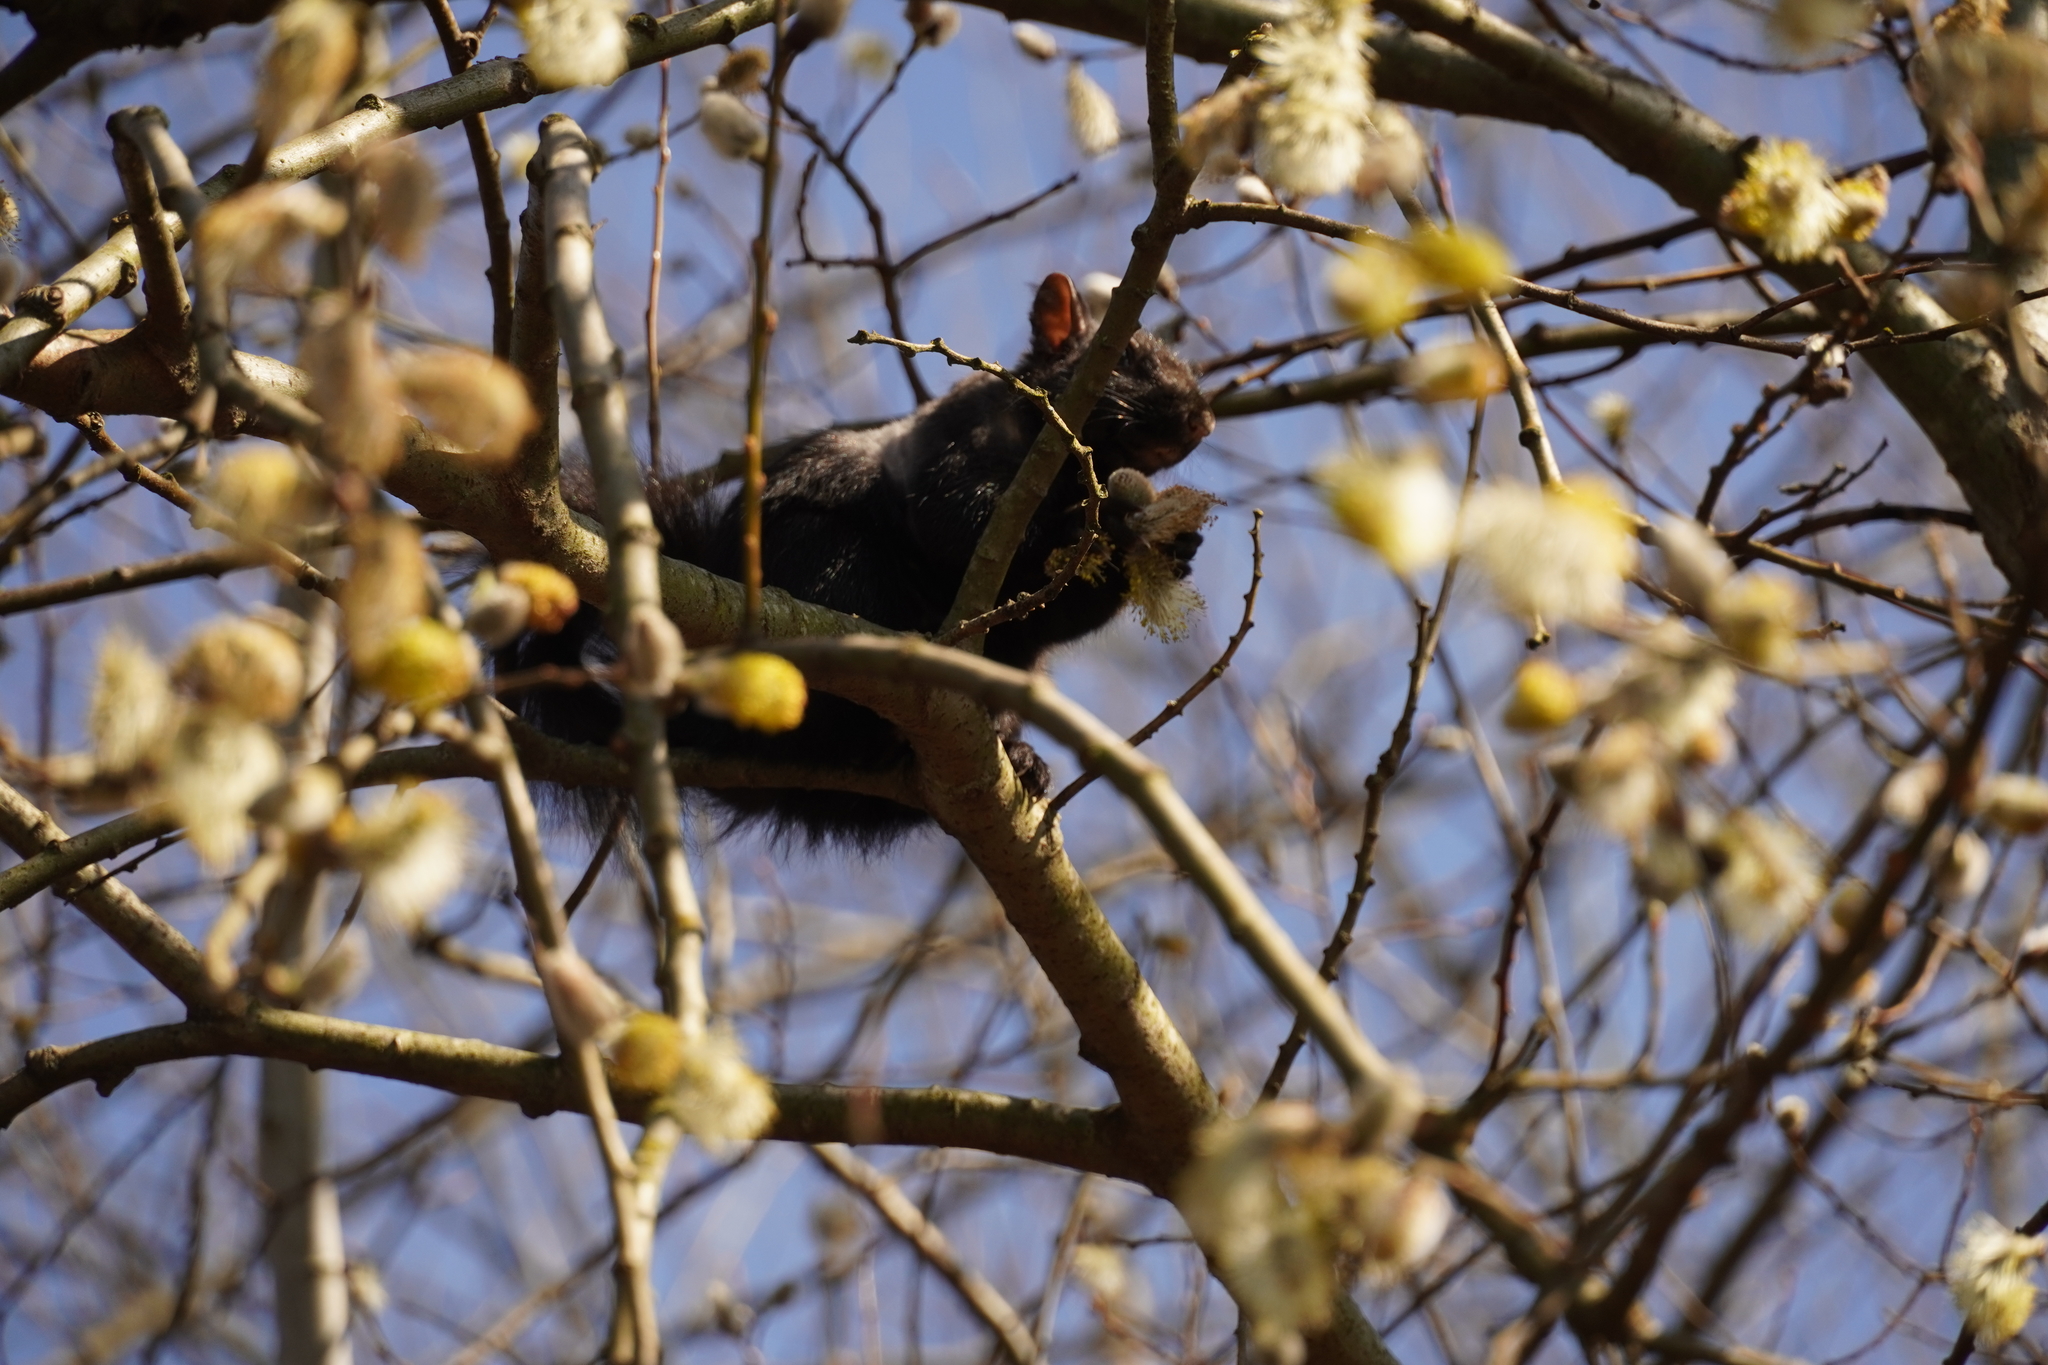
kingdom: Animalia
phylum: Chordata
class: Mammalia
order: Rodentia
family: Sciuridae
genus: Sciurus
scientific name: Sciurus carolinensis
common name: Eastern gray squirrel
